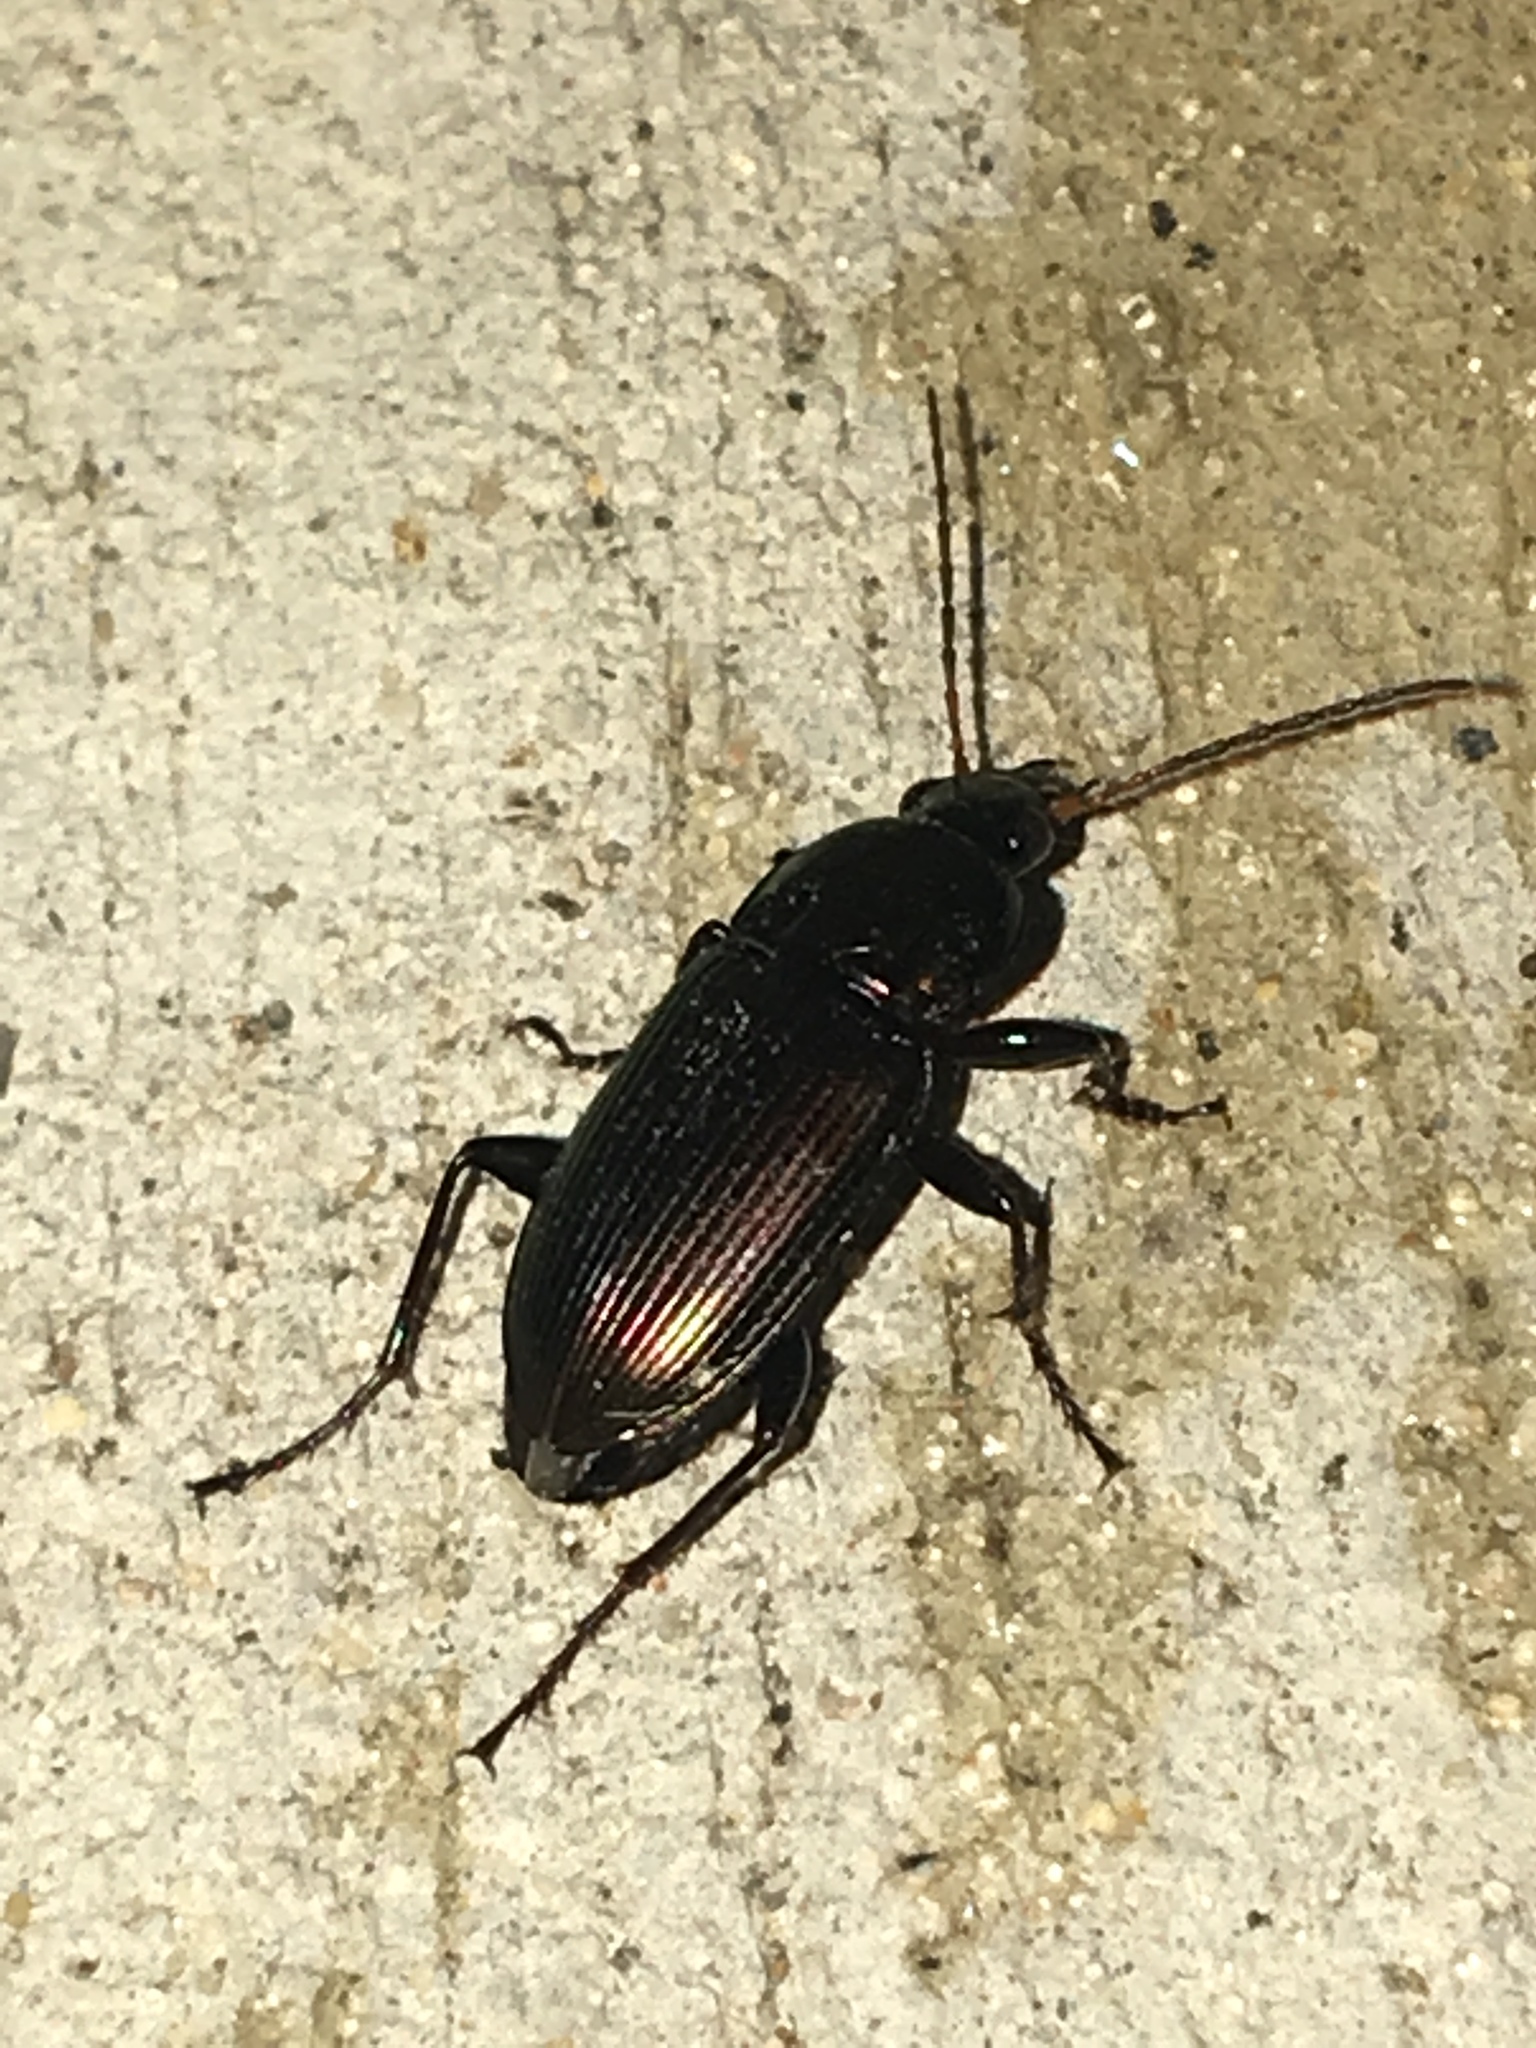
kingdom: Animalia
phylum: Arthropoda
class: Insecta
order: Coleoptera
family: Carabidae
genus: Poecilus
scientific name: Poecilus chalcites
